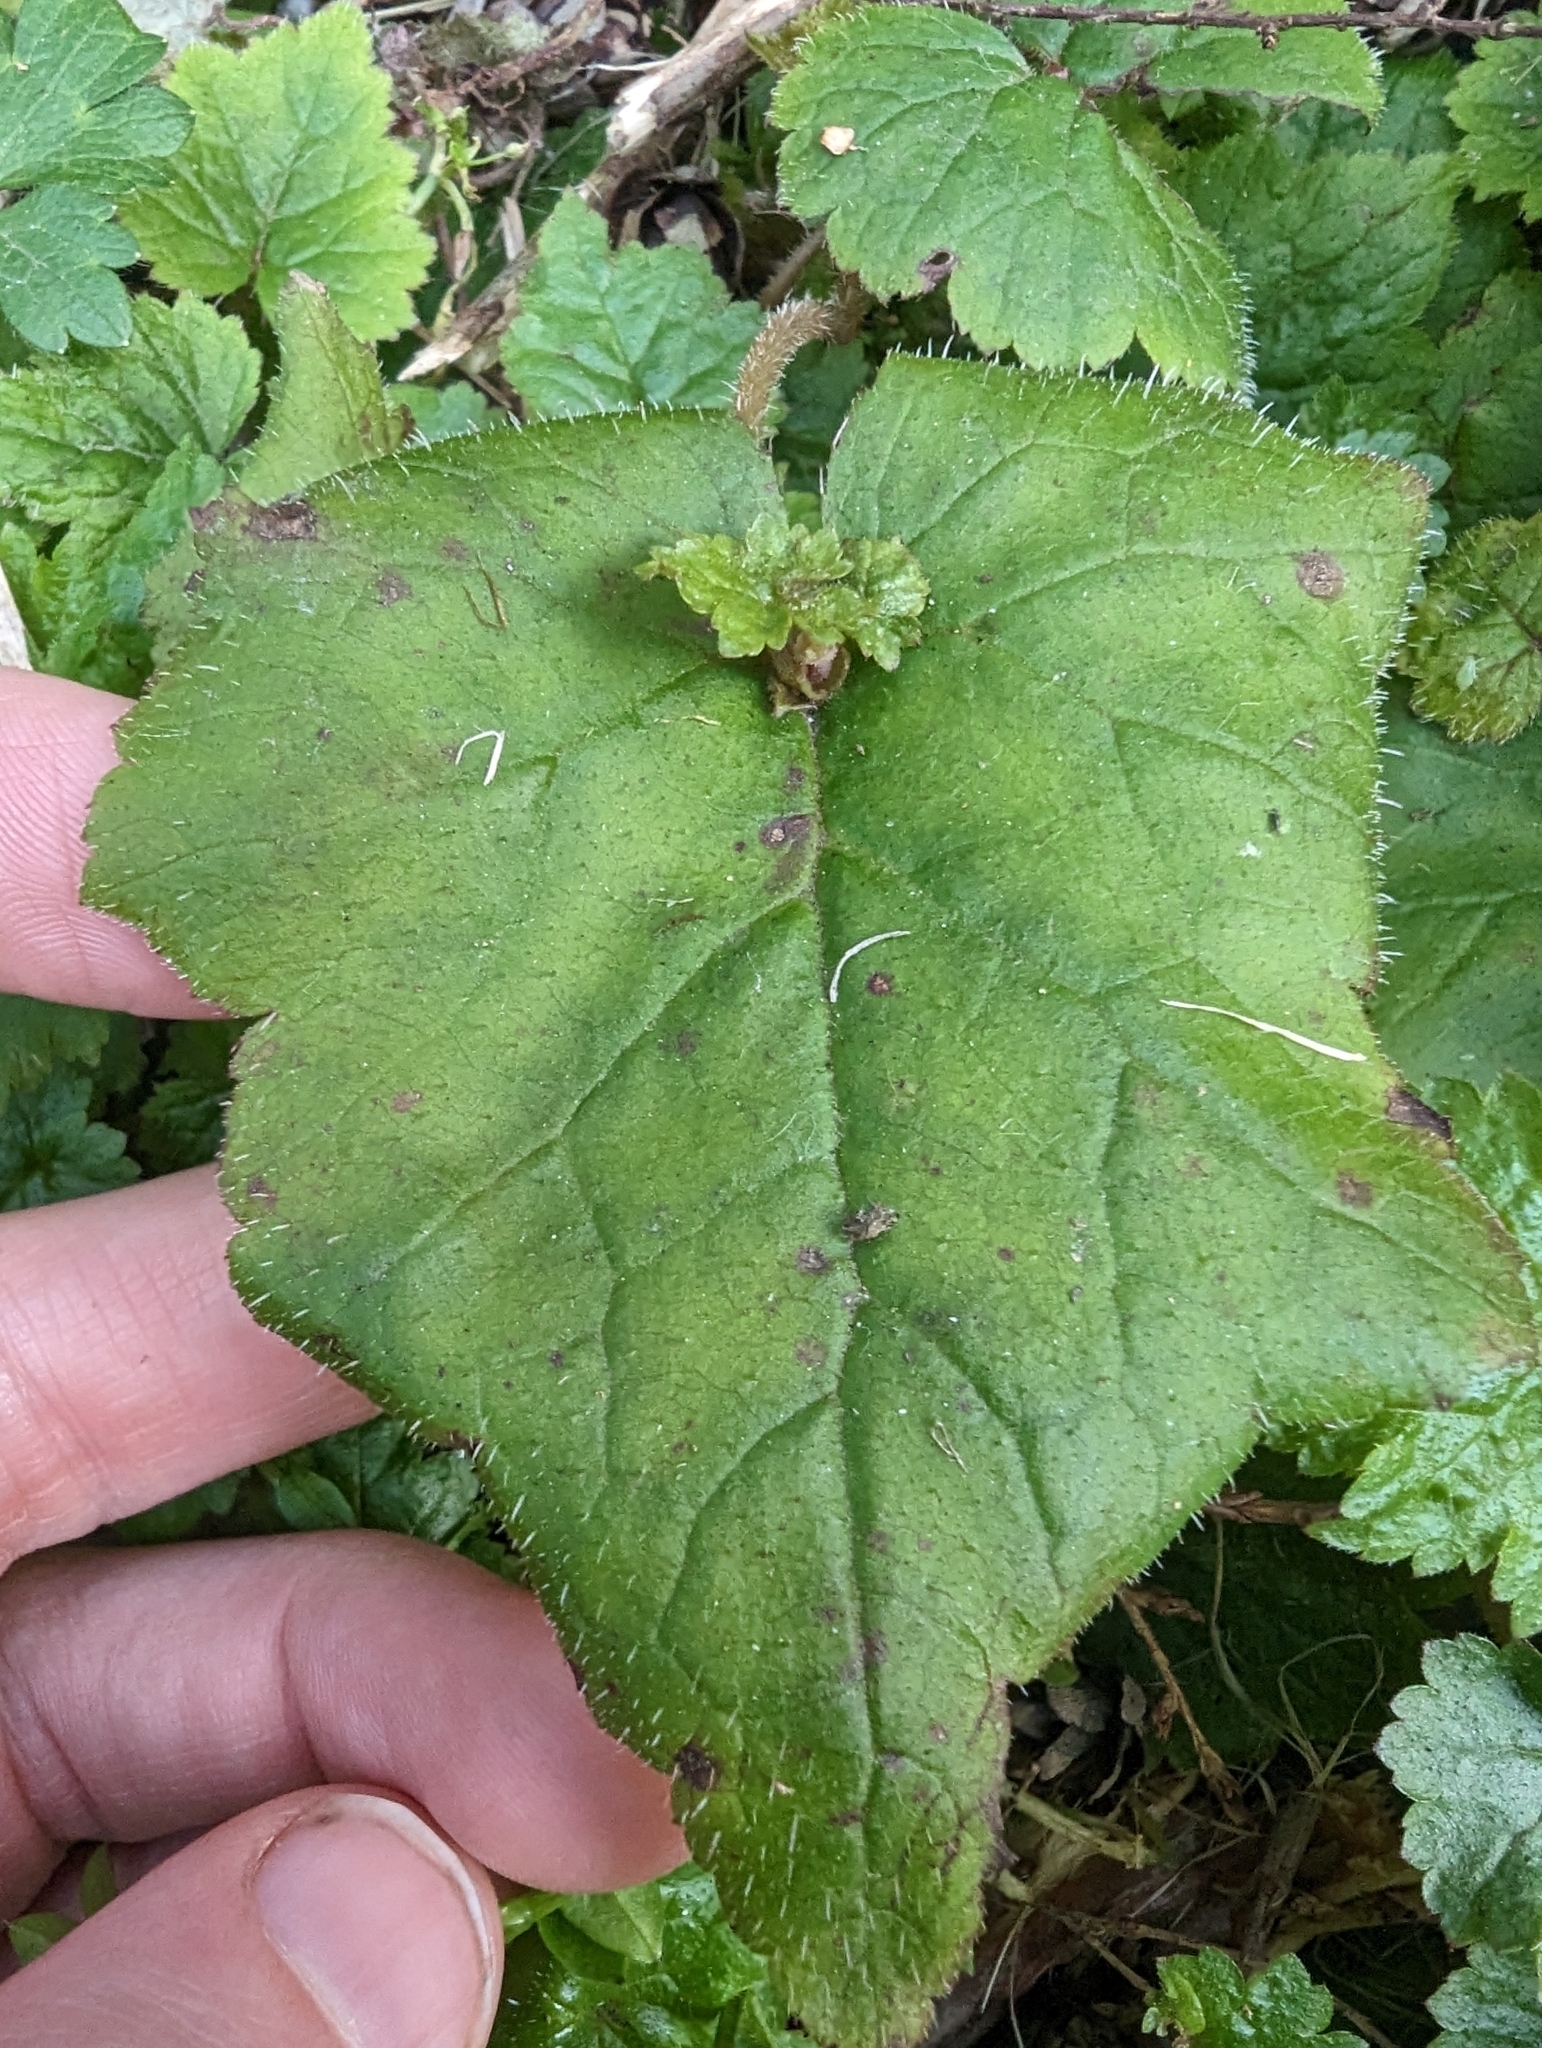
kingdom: Plantae
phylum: Tracheophyta
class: Magnoliopsida
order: Saxifragales
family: Saxifragaceae
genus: Tolmiea
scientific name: Tolmiea menziesii
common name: Pick-a-back-plant
